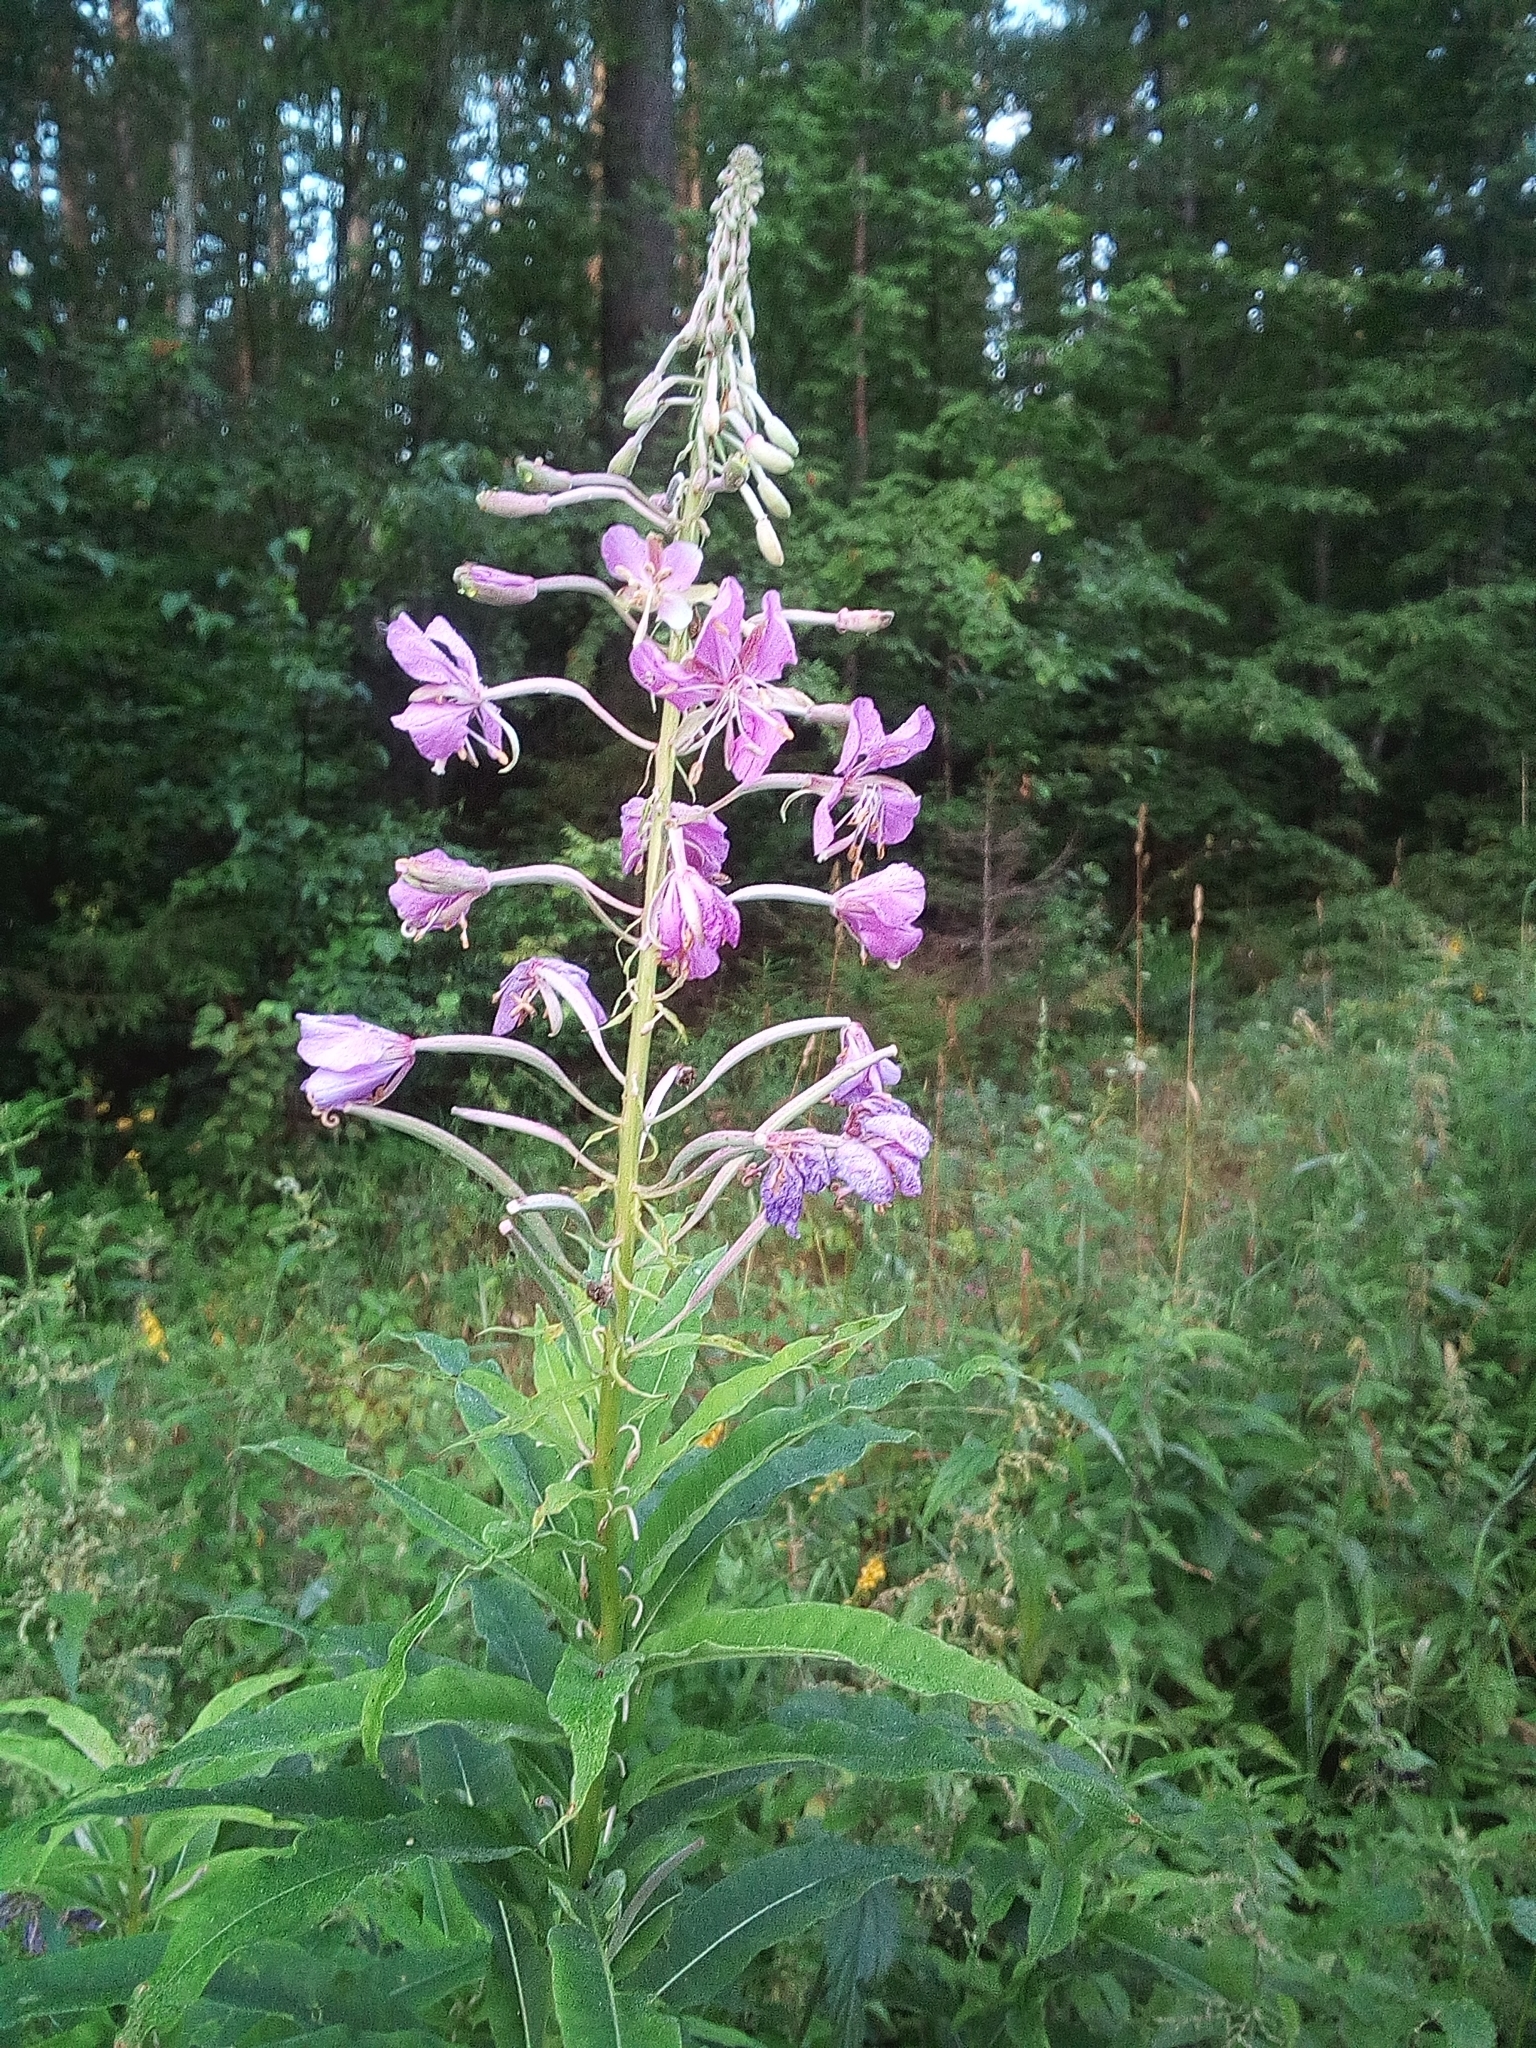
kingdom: Plantae
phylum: Tracheophyta
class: Magnoliopsida
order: Myrtales
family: Onagraceae
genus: Chamaenerion
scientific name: Chamaenerion angustifolium
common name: Fireweed
